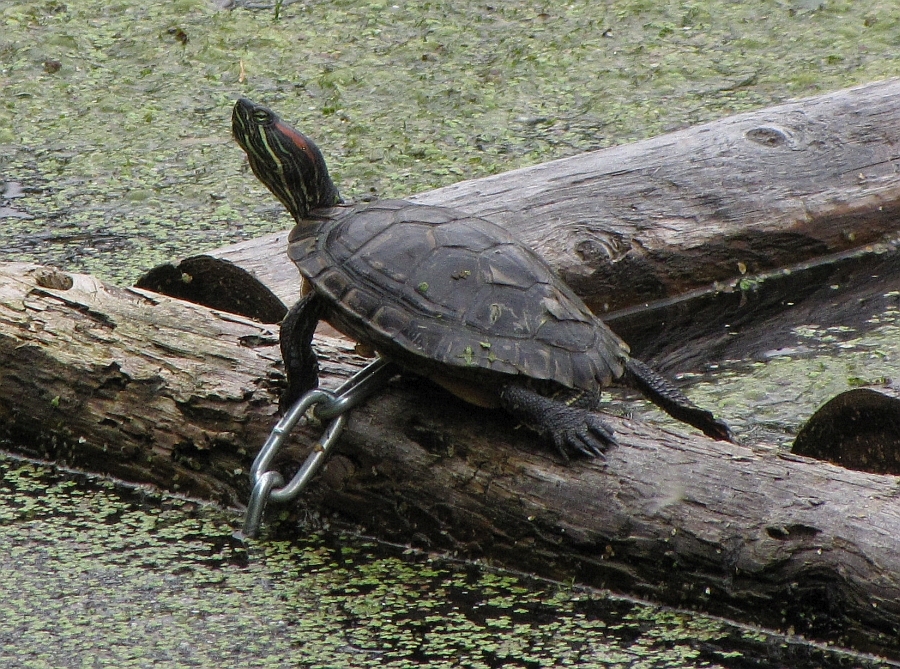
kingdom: Animalia
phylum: Chordata
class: Testudines
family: Emydidae
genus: Trachemys
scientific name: Trachemys scripta
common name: Slider
